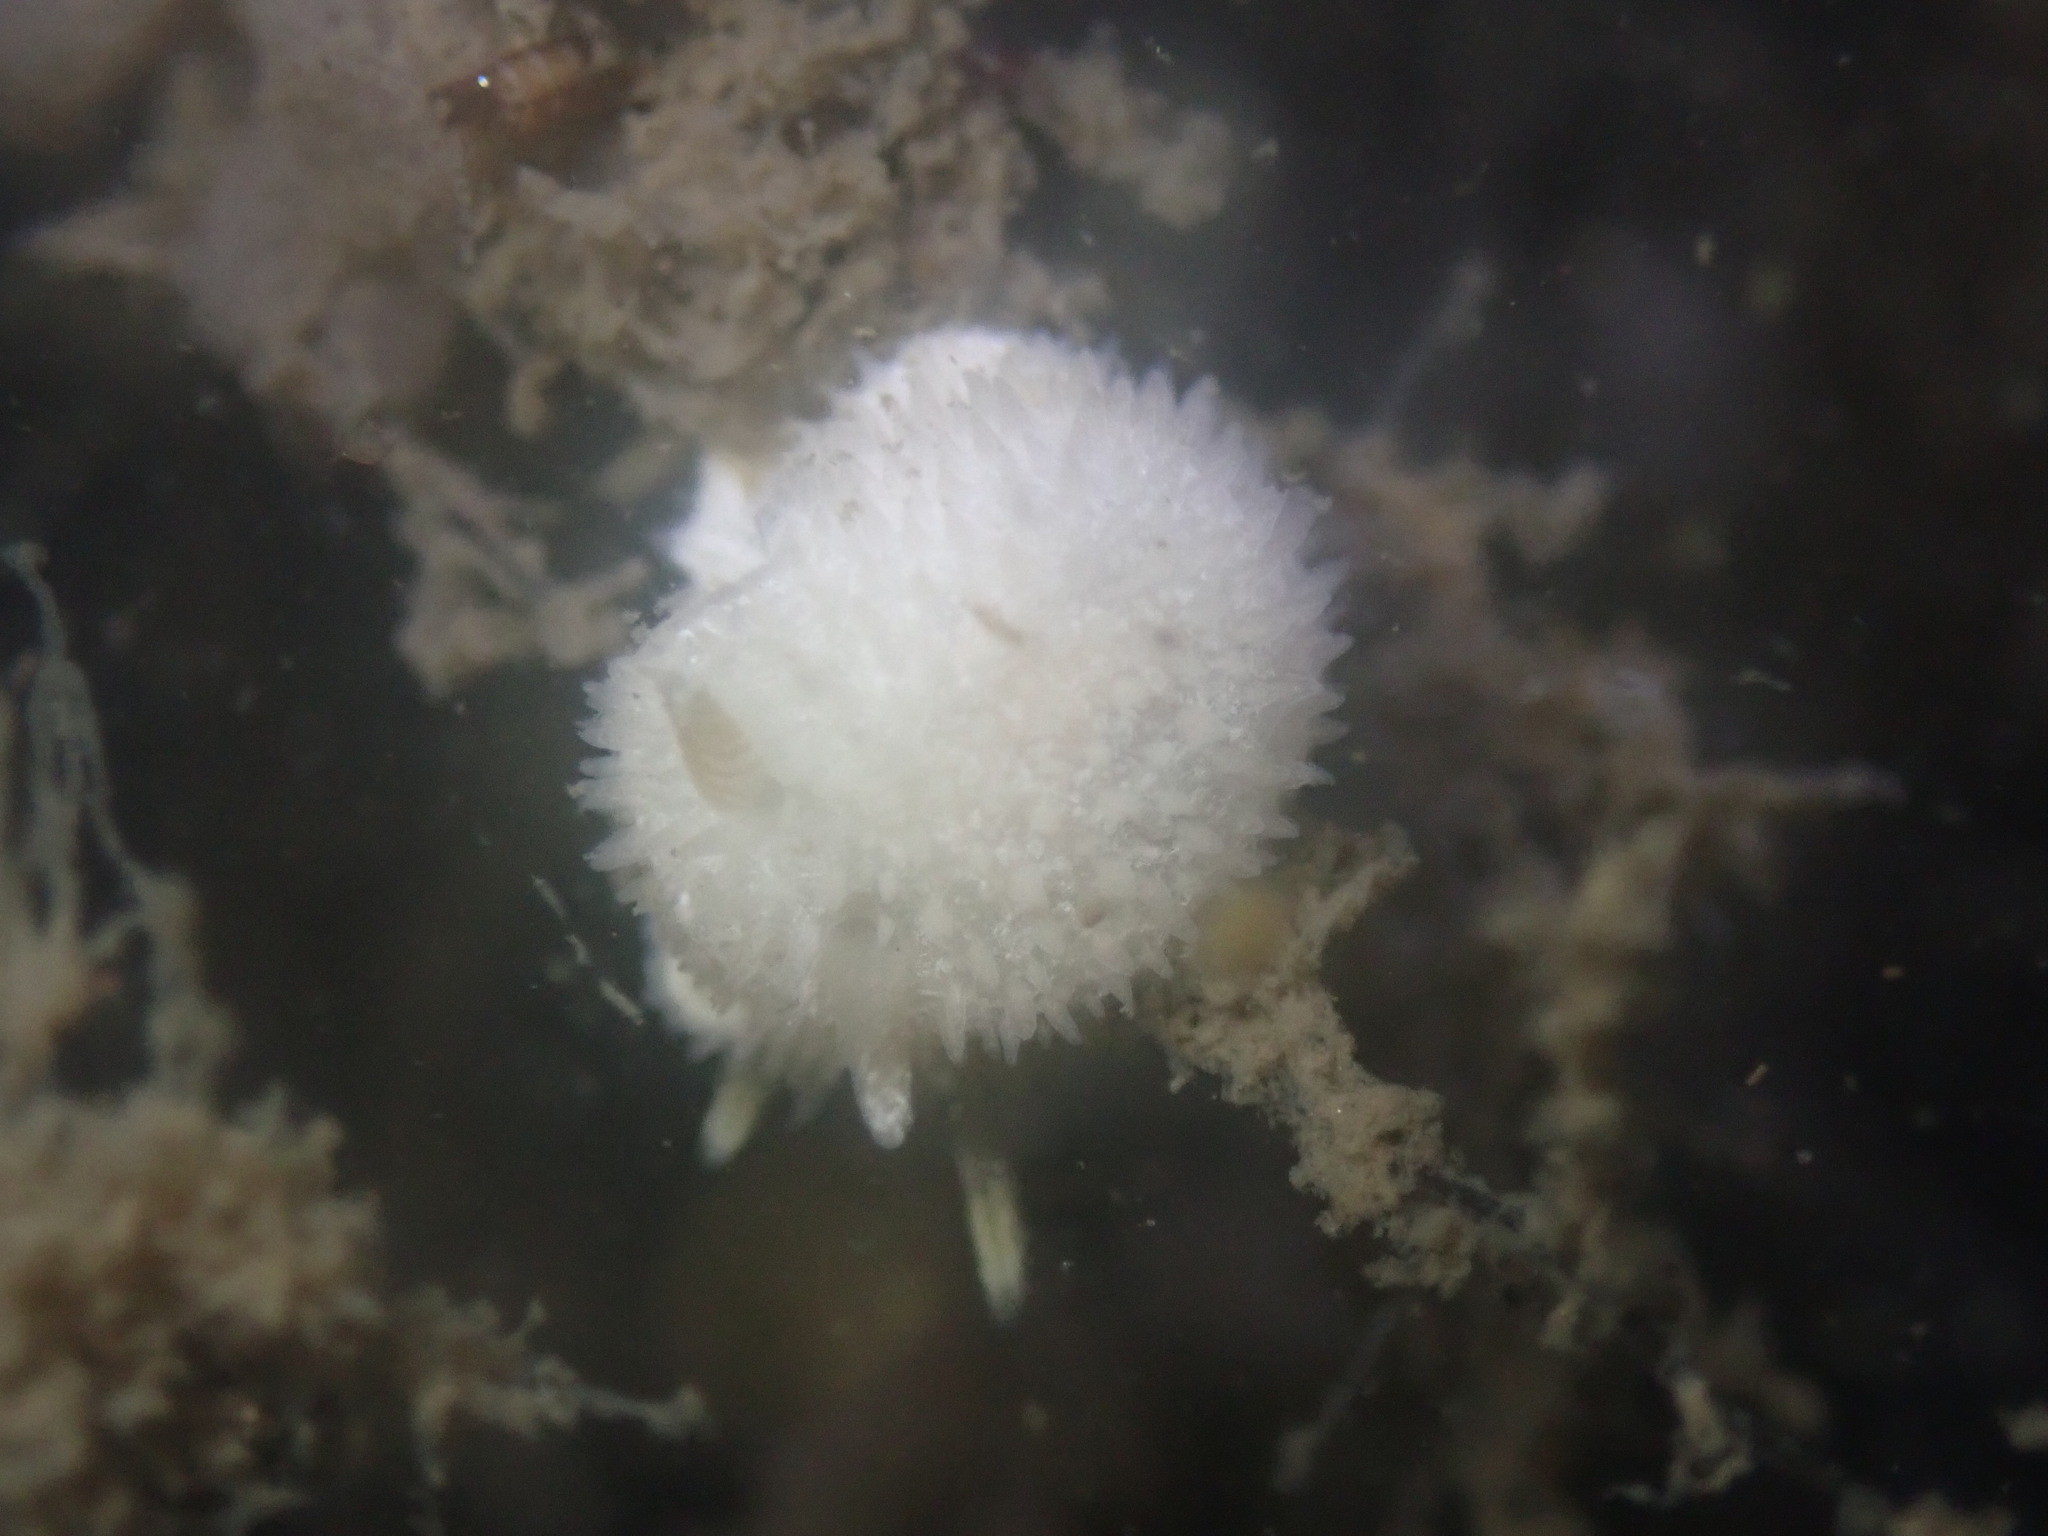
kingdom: Animalia
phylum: Mollusca
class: Gastropoda
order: Nudibranchia
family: Calycidorididae
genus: Diaphorodoris
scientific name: Diaphorodoris lirulatocauda
